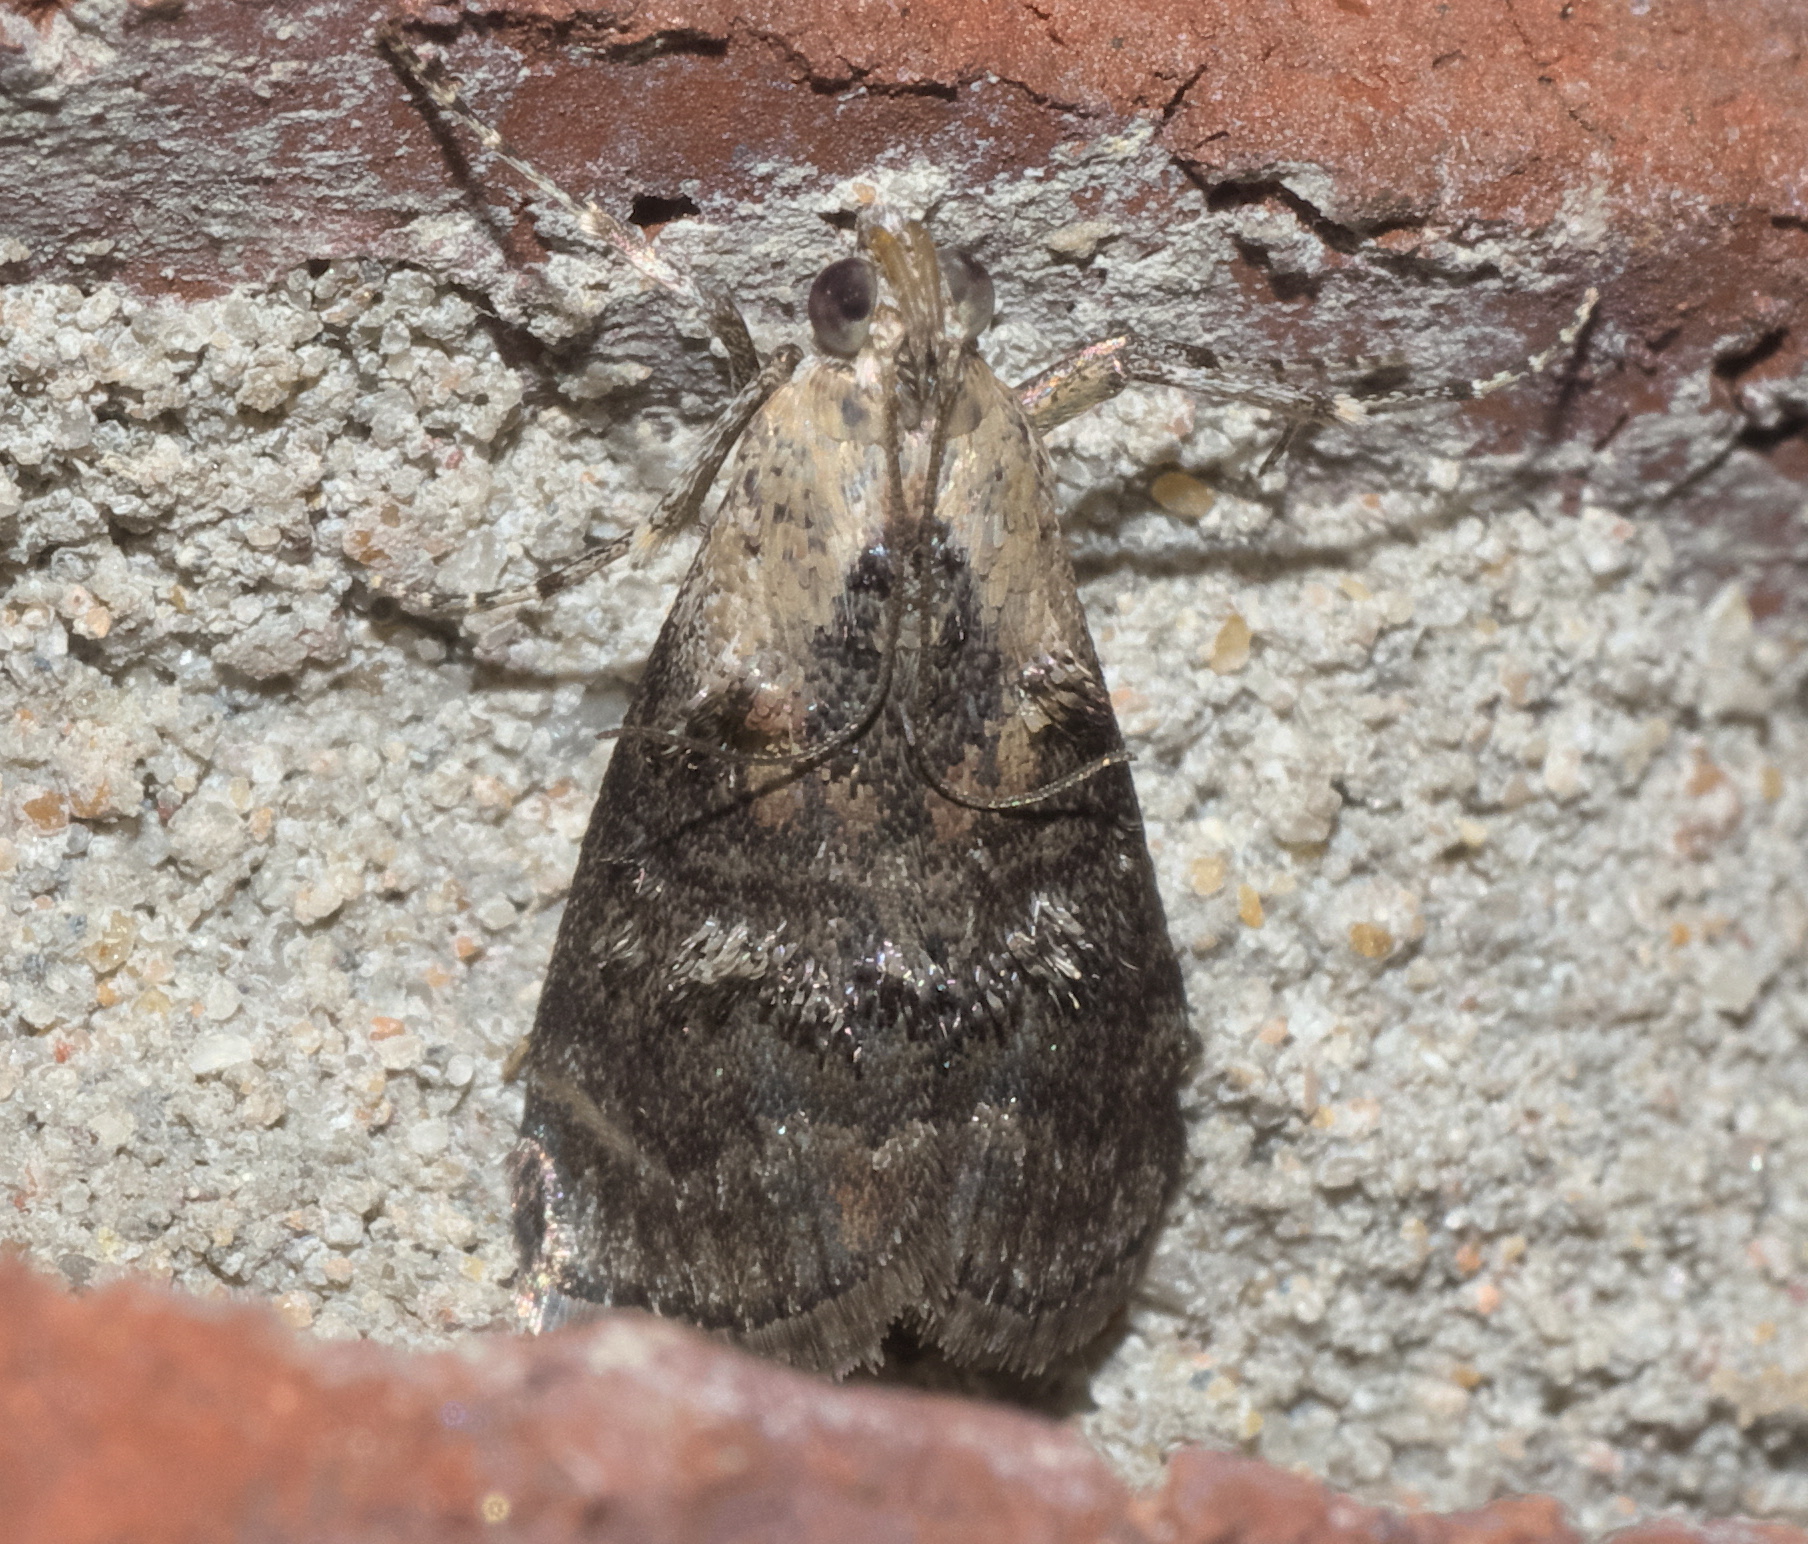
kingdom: Animalia
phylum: Arthropoda
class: Insecta
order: Lepidoptera
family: Pyralidae
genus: Pococera
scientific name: Pococera expandens
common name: Striped oak webworm moth
